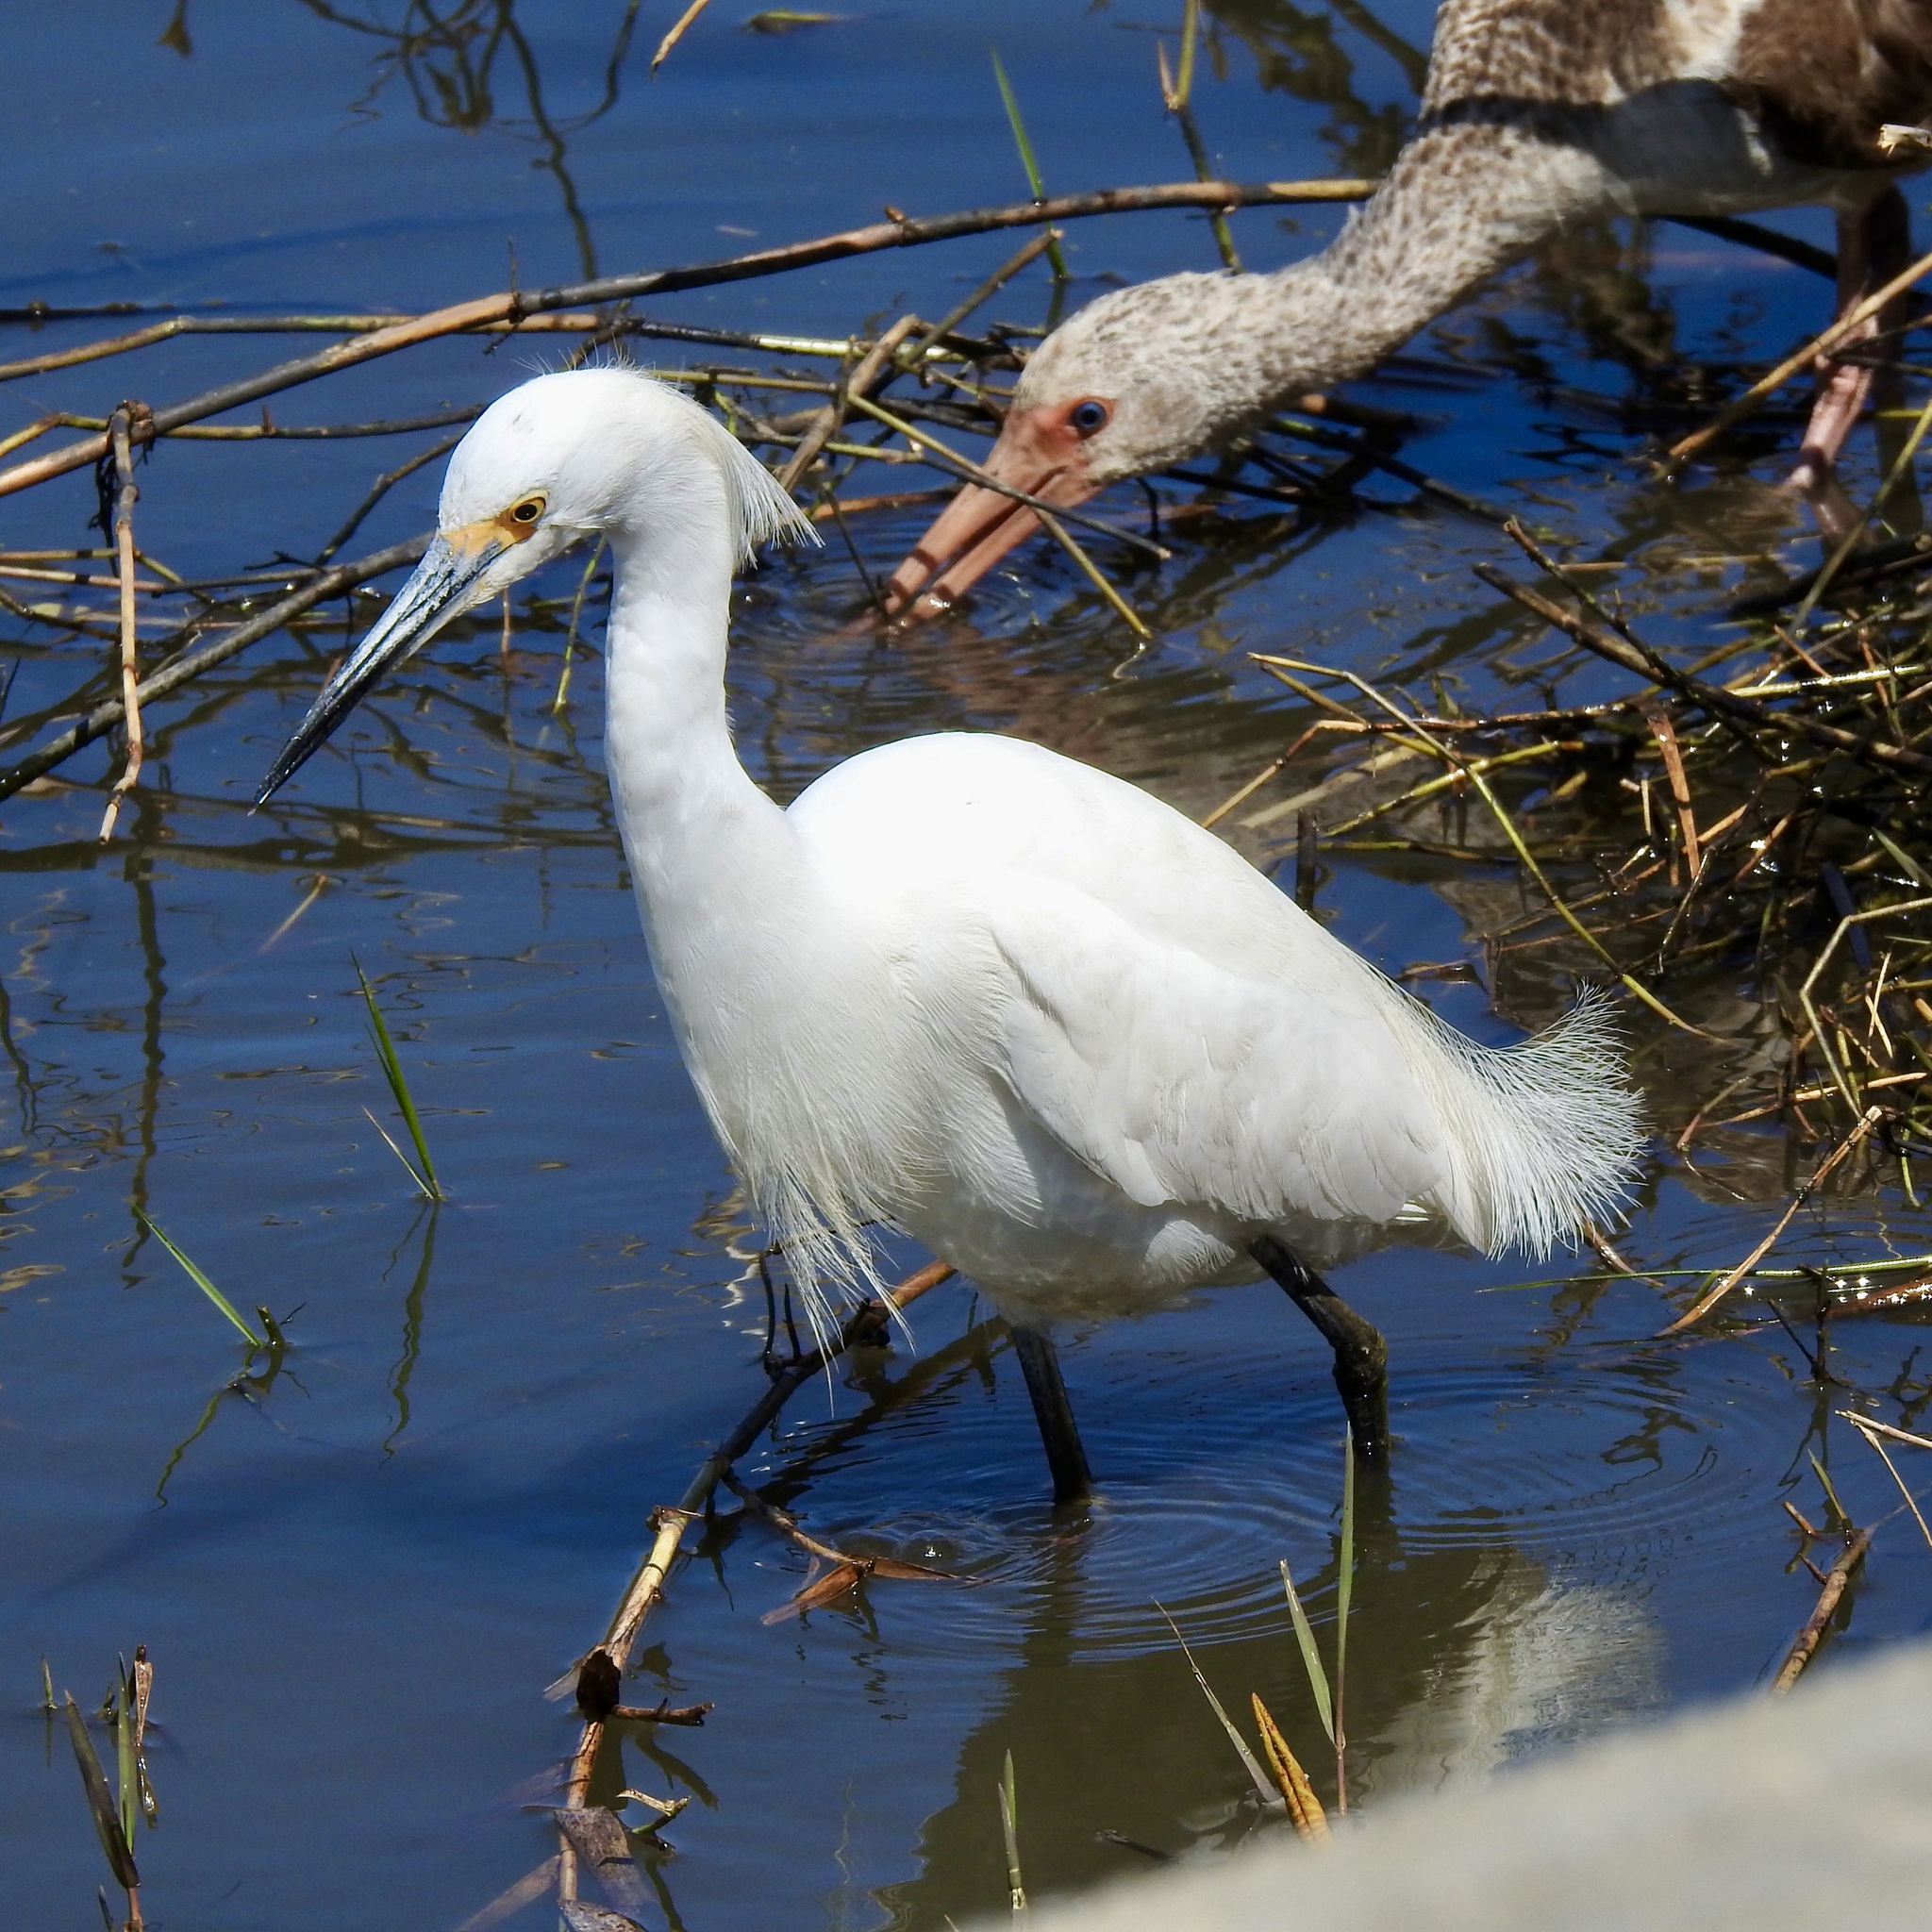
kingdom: Animalia
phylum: Chordata
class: Aves
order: Pelecaniformes
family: Ardeidae
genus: Egretta
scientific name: Egretta thula
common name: Snowy egret
